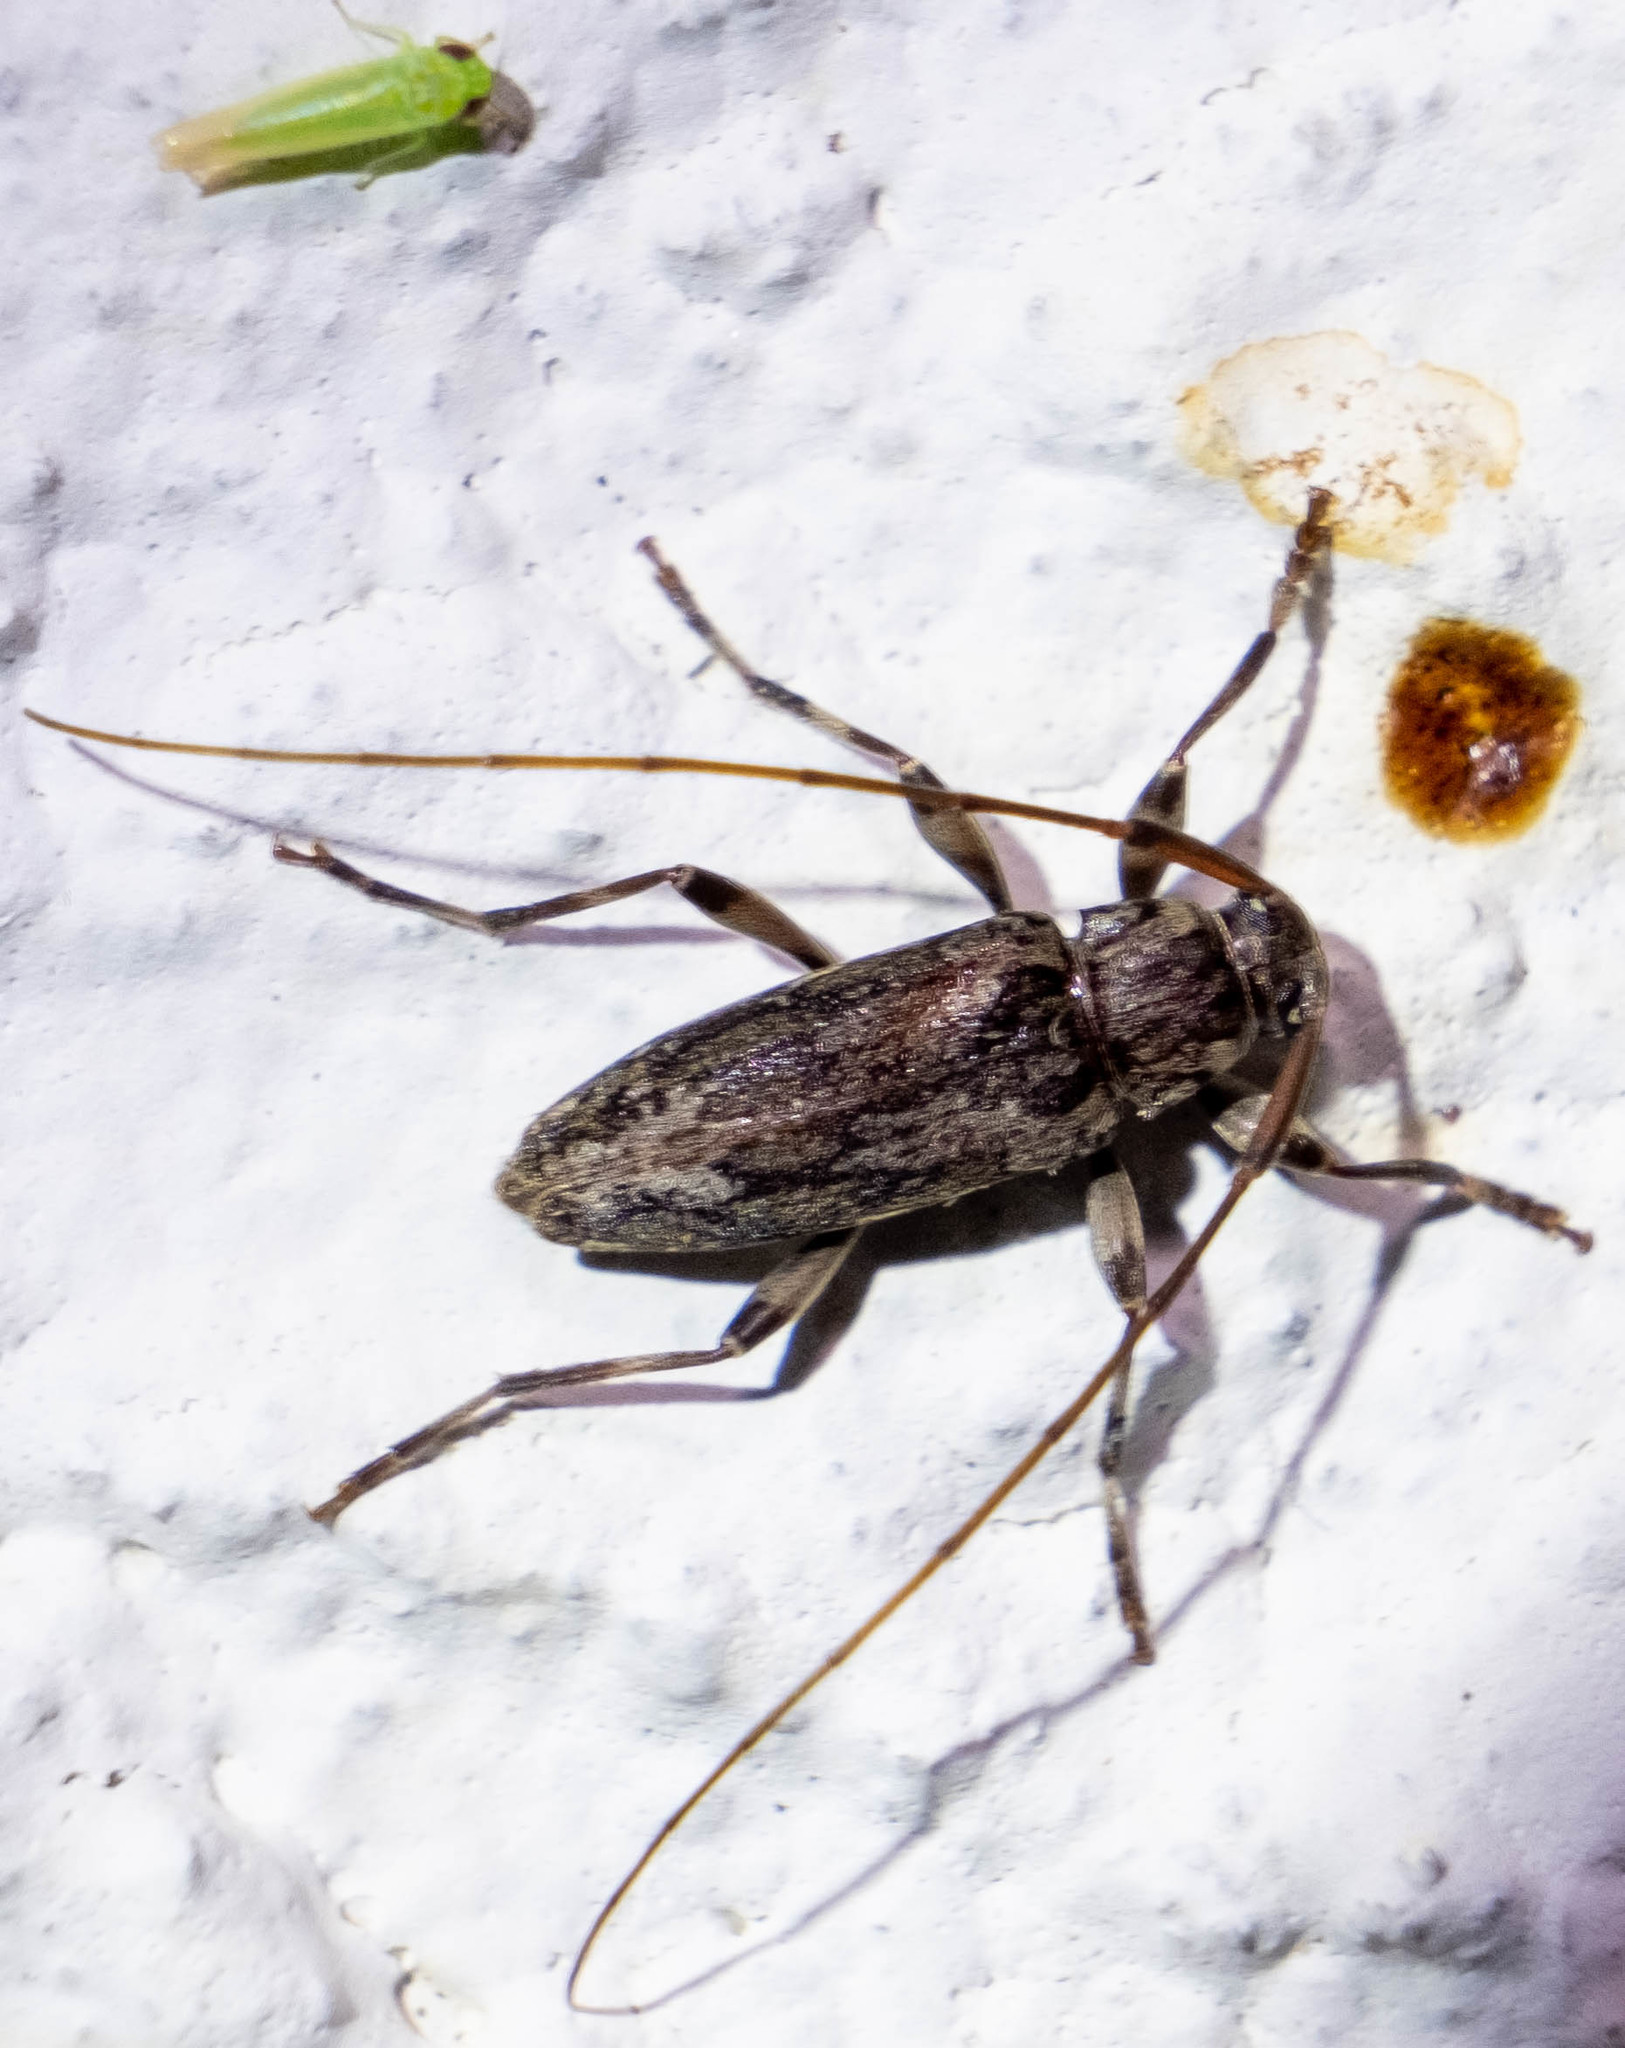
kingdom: Animalia
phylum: Arthropoda
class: Insecta
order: Coleoptera
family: Cerambycidae
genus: Lepturges
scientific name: Lepturges confluens
